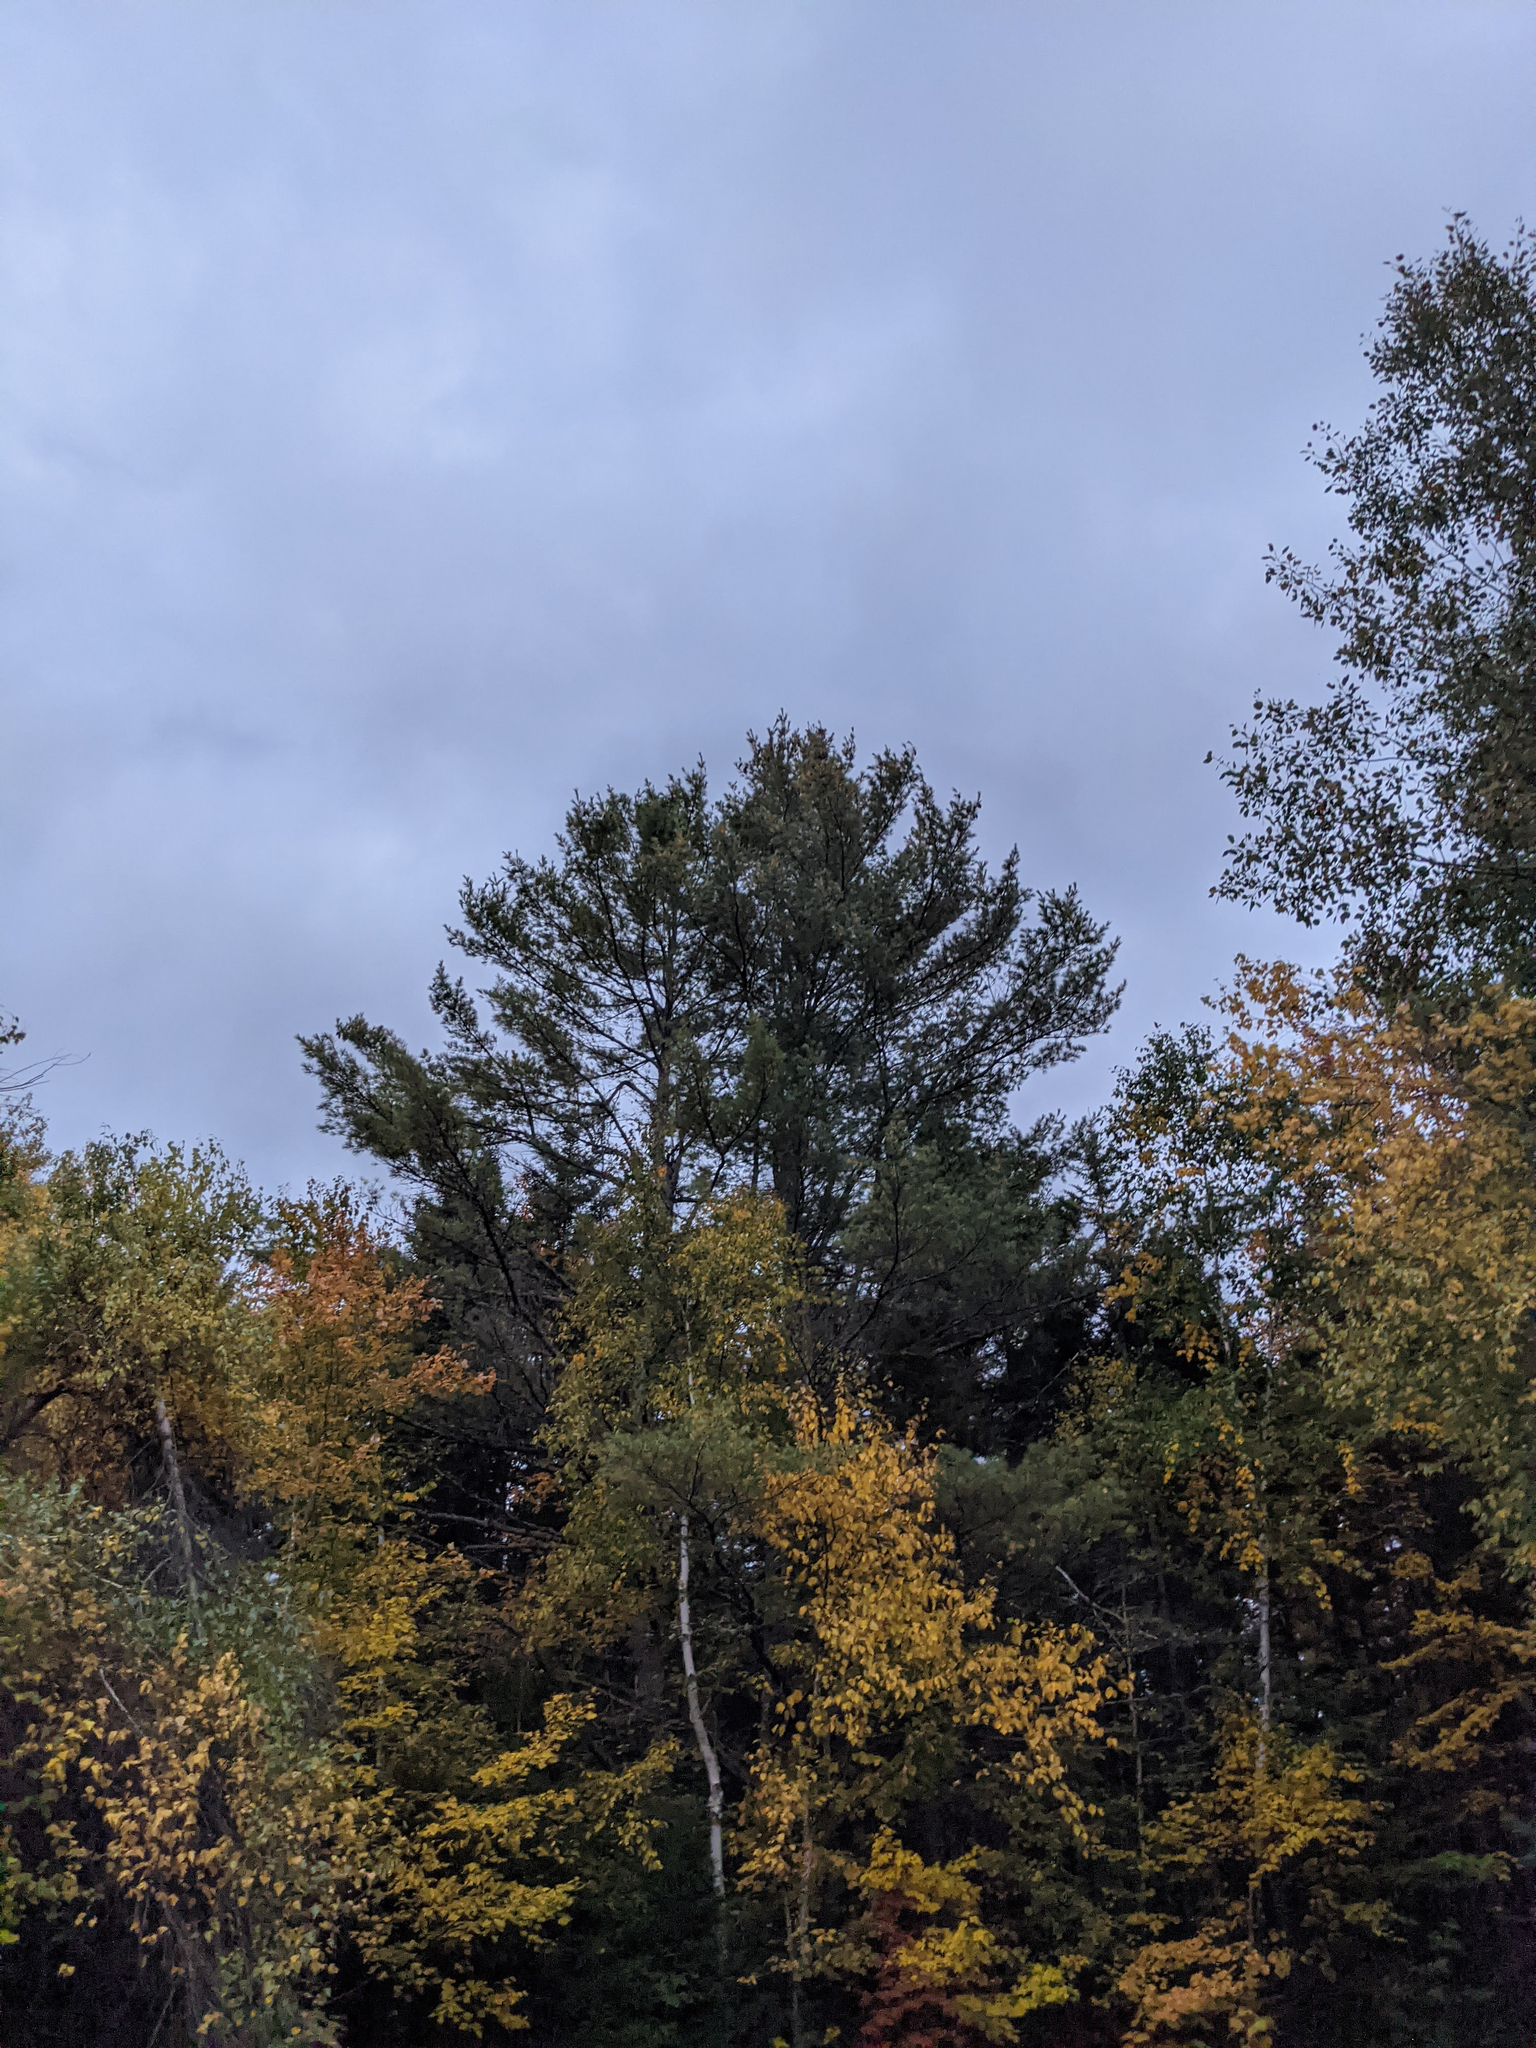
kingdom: Plantae
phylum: Tracheophyta
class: Pinopsida
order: Pinales
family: Pinaceae
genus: Pinus
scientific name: Pinus strobus
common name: Weymouth pine
